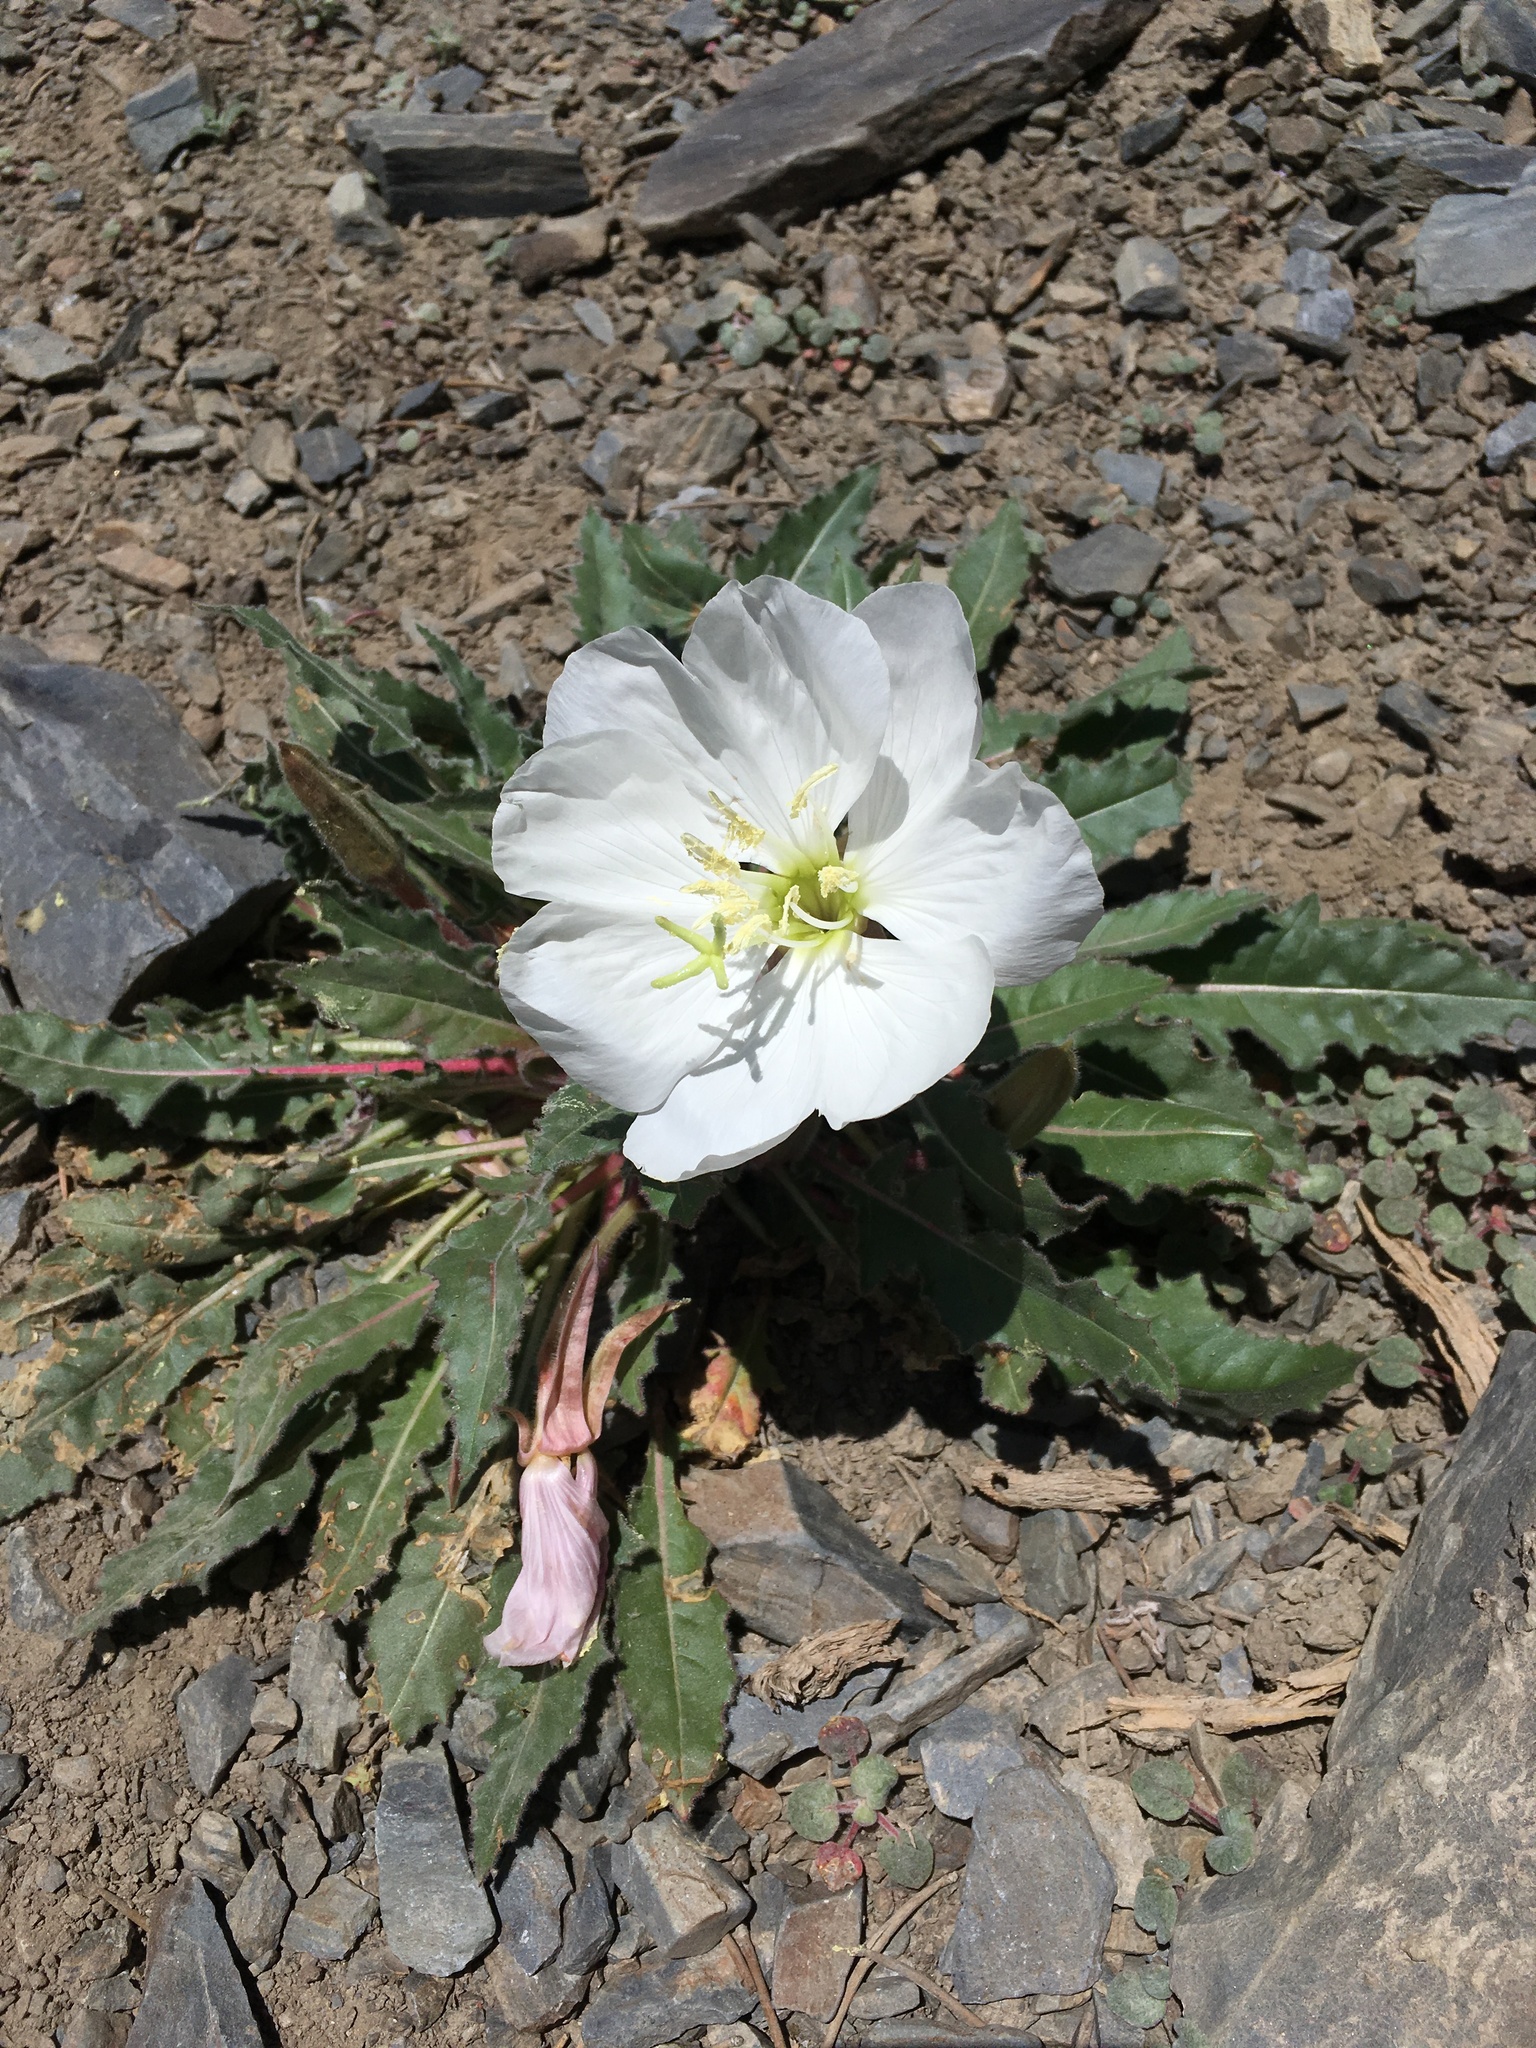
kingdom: Plantae
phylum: Tracheophyta
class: Magnoliopsida
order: Myrtales
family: Onagraceae
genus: Oenothera
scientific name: Oenothera cespitosa
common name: Tufted evening-primrose
